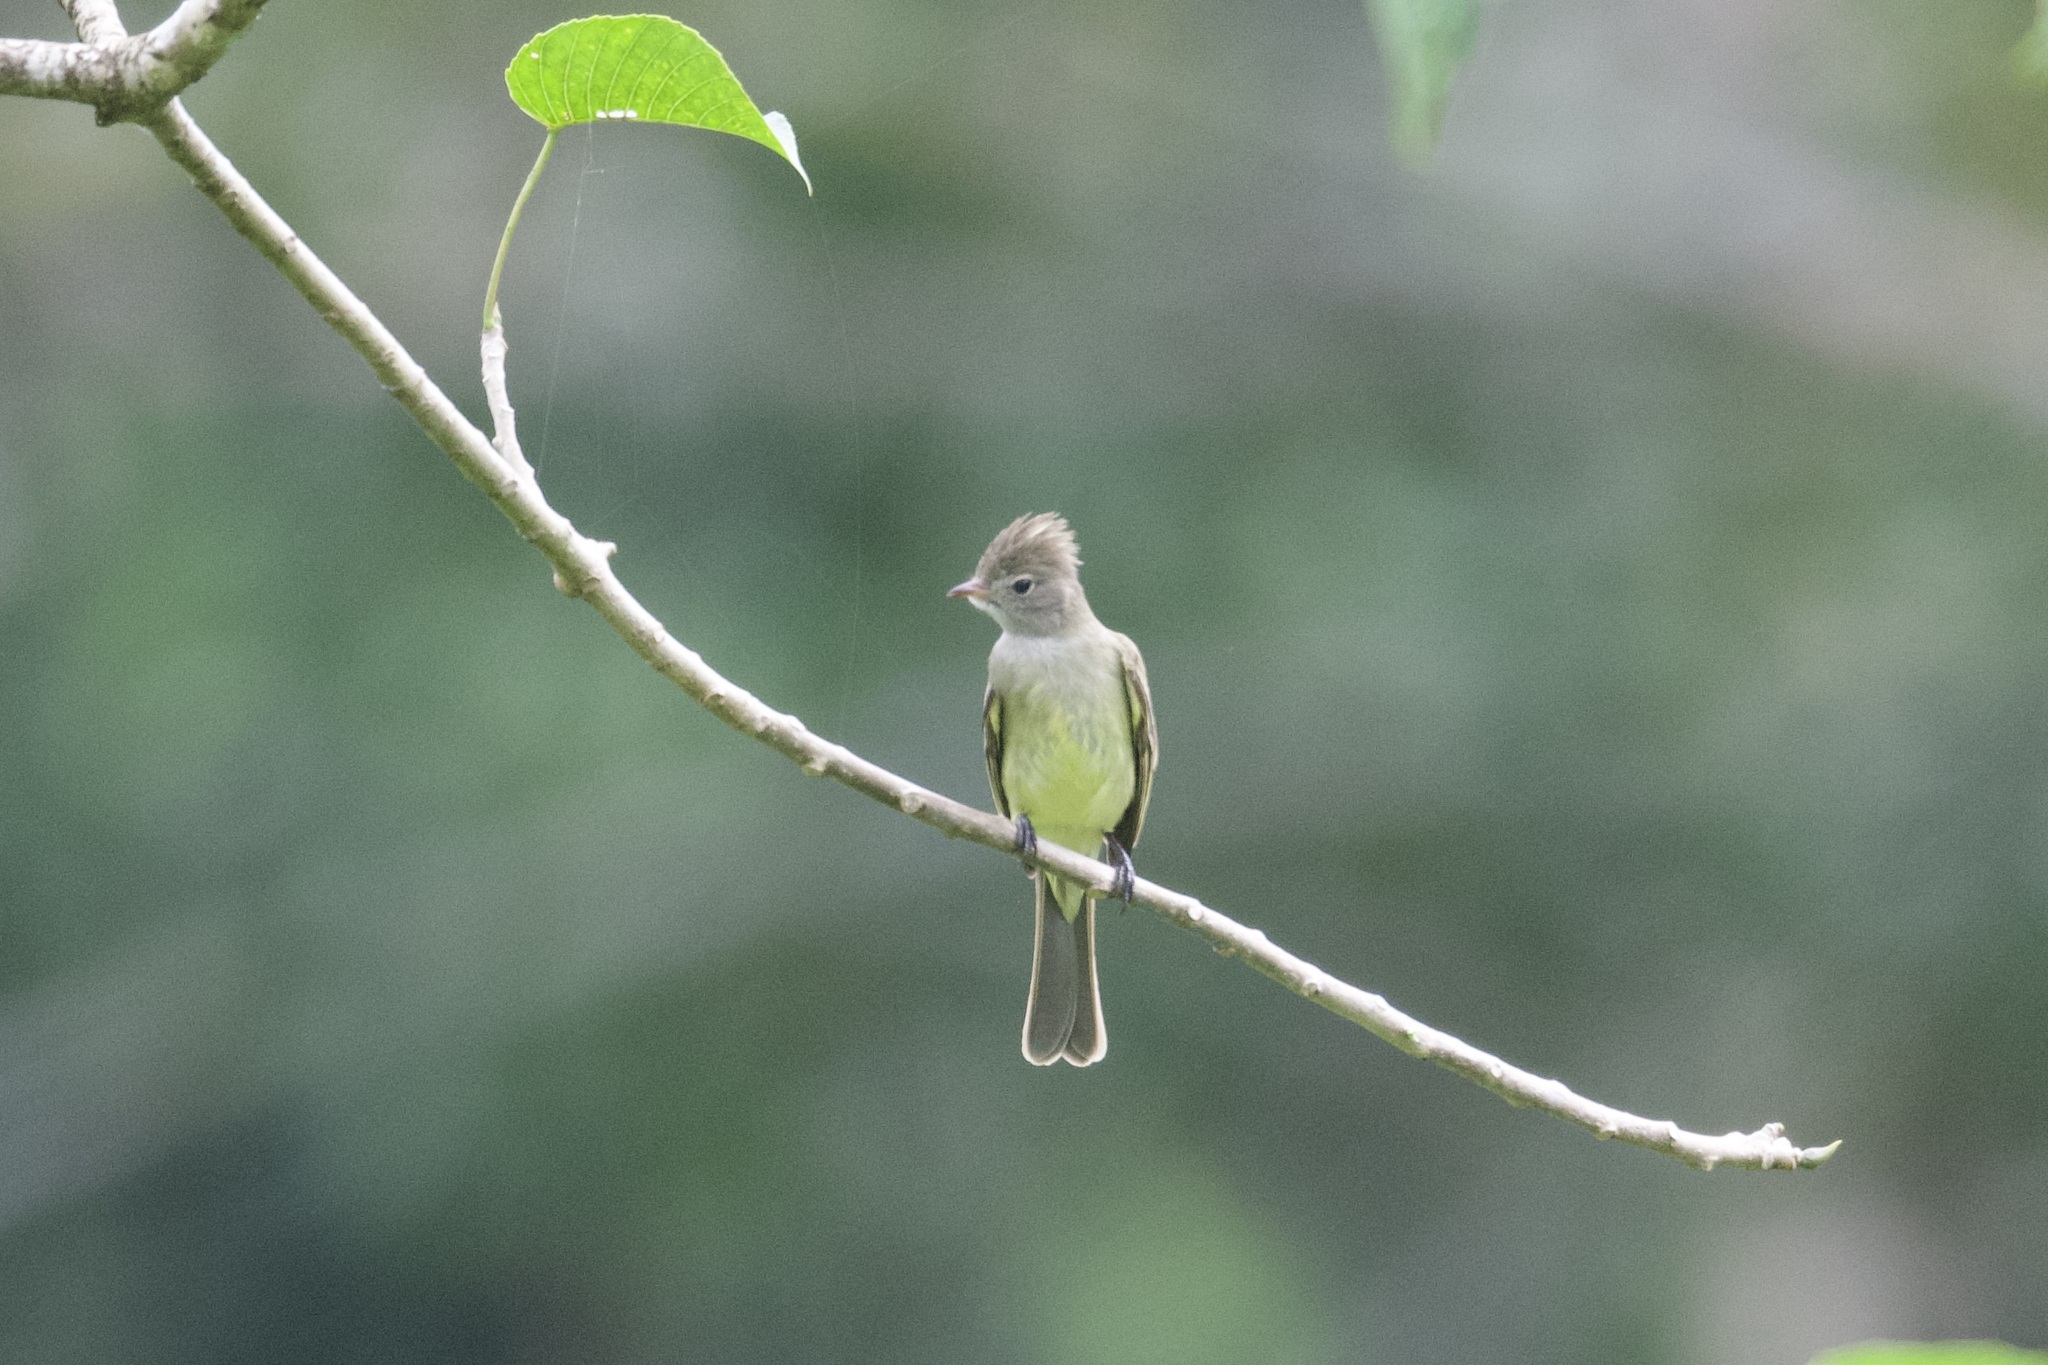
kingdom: Animalia
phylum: Chordata
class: Aves
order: Passeriformes
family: Tyrannidae
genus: Elaenia
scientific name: Elaenia flavogaster
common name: Yellow-bellied elaenia
